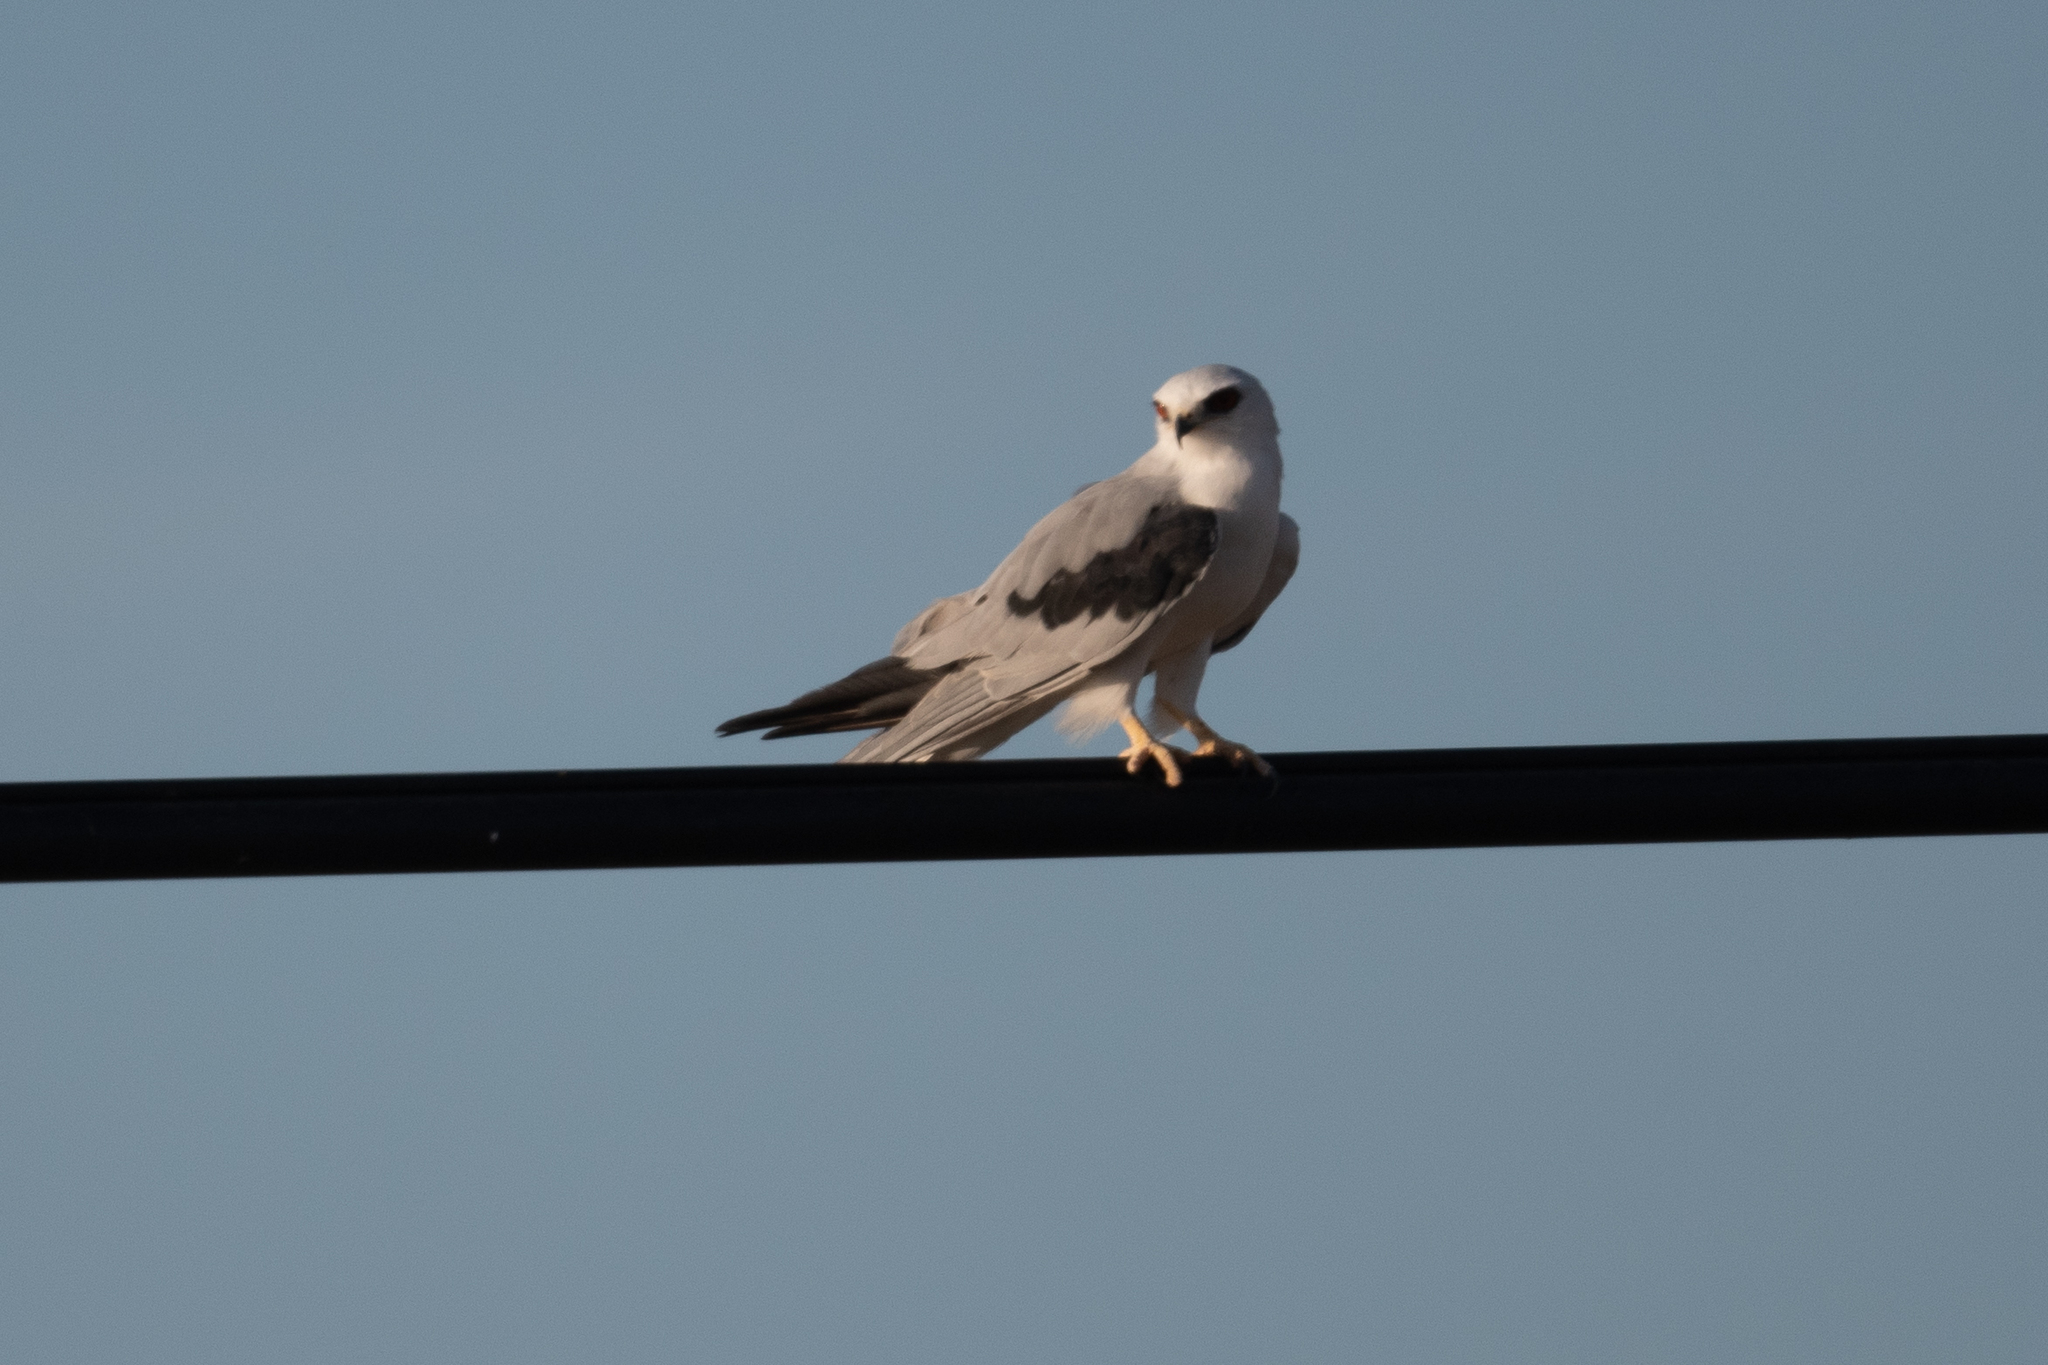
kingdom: Animalia
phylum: Chordata
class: Aves
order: Accipitriformes
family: Accipitridae
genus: Elanus
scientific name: Elanus leucurus
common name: White-tailed kite
